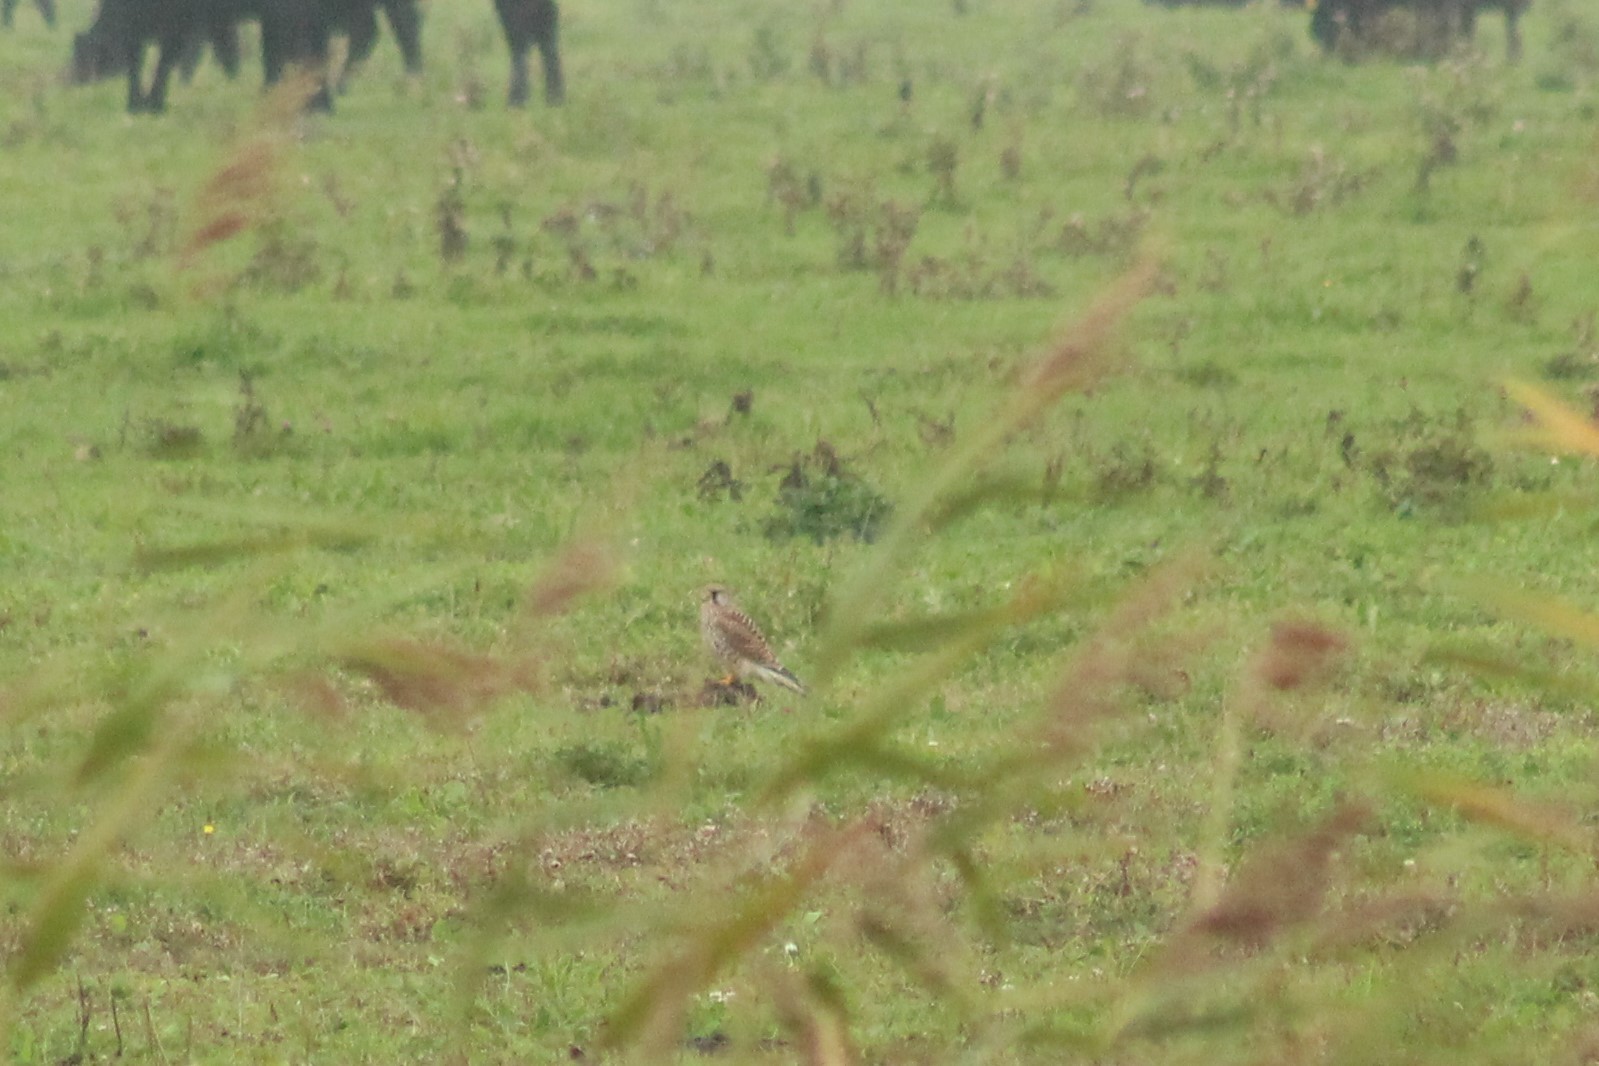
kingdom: Animalia
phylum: Chordata
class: Aves
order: Falconiformes
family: Falconidae
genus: Falco
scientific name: Falco tinnunculus
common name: Common kestrel
